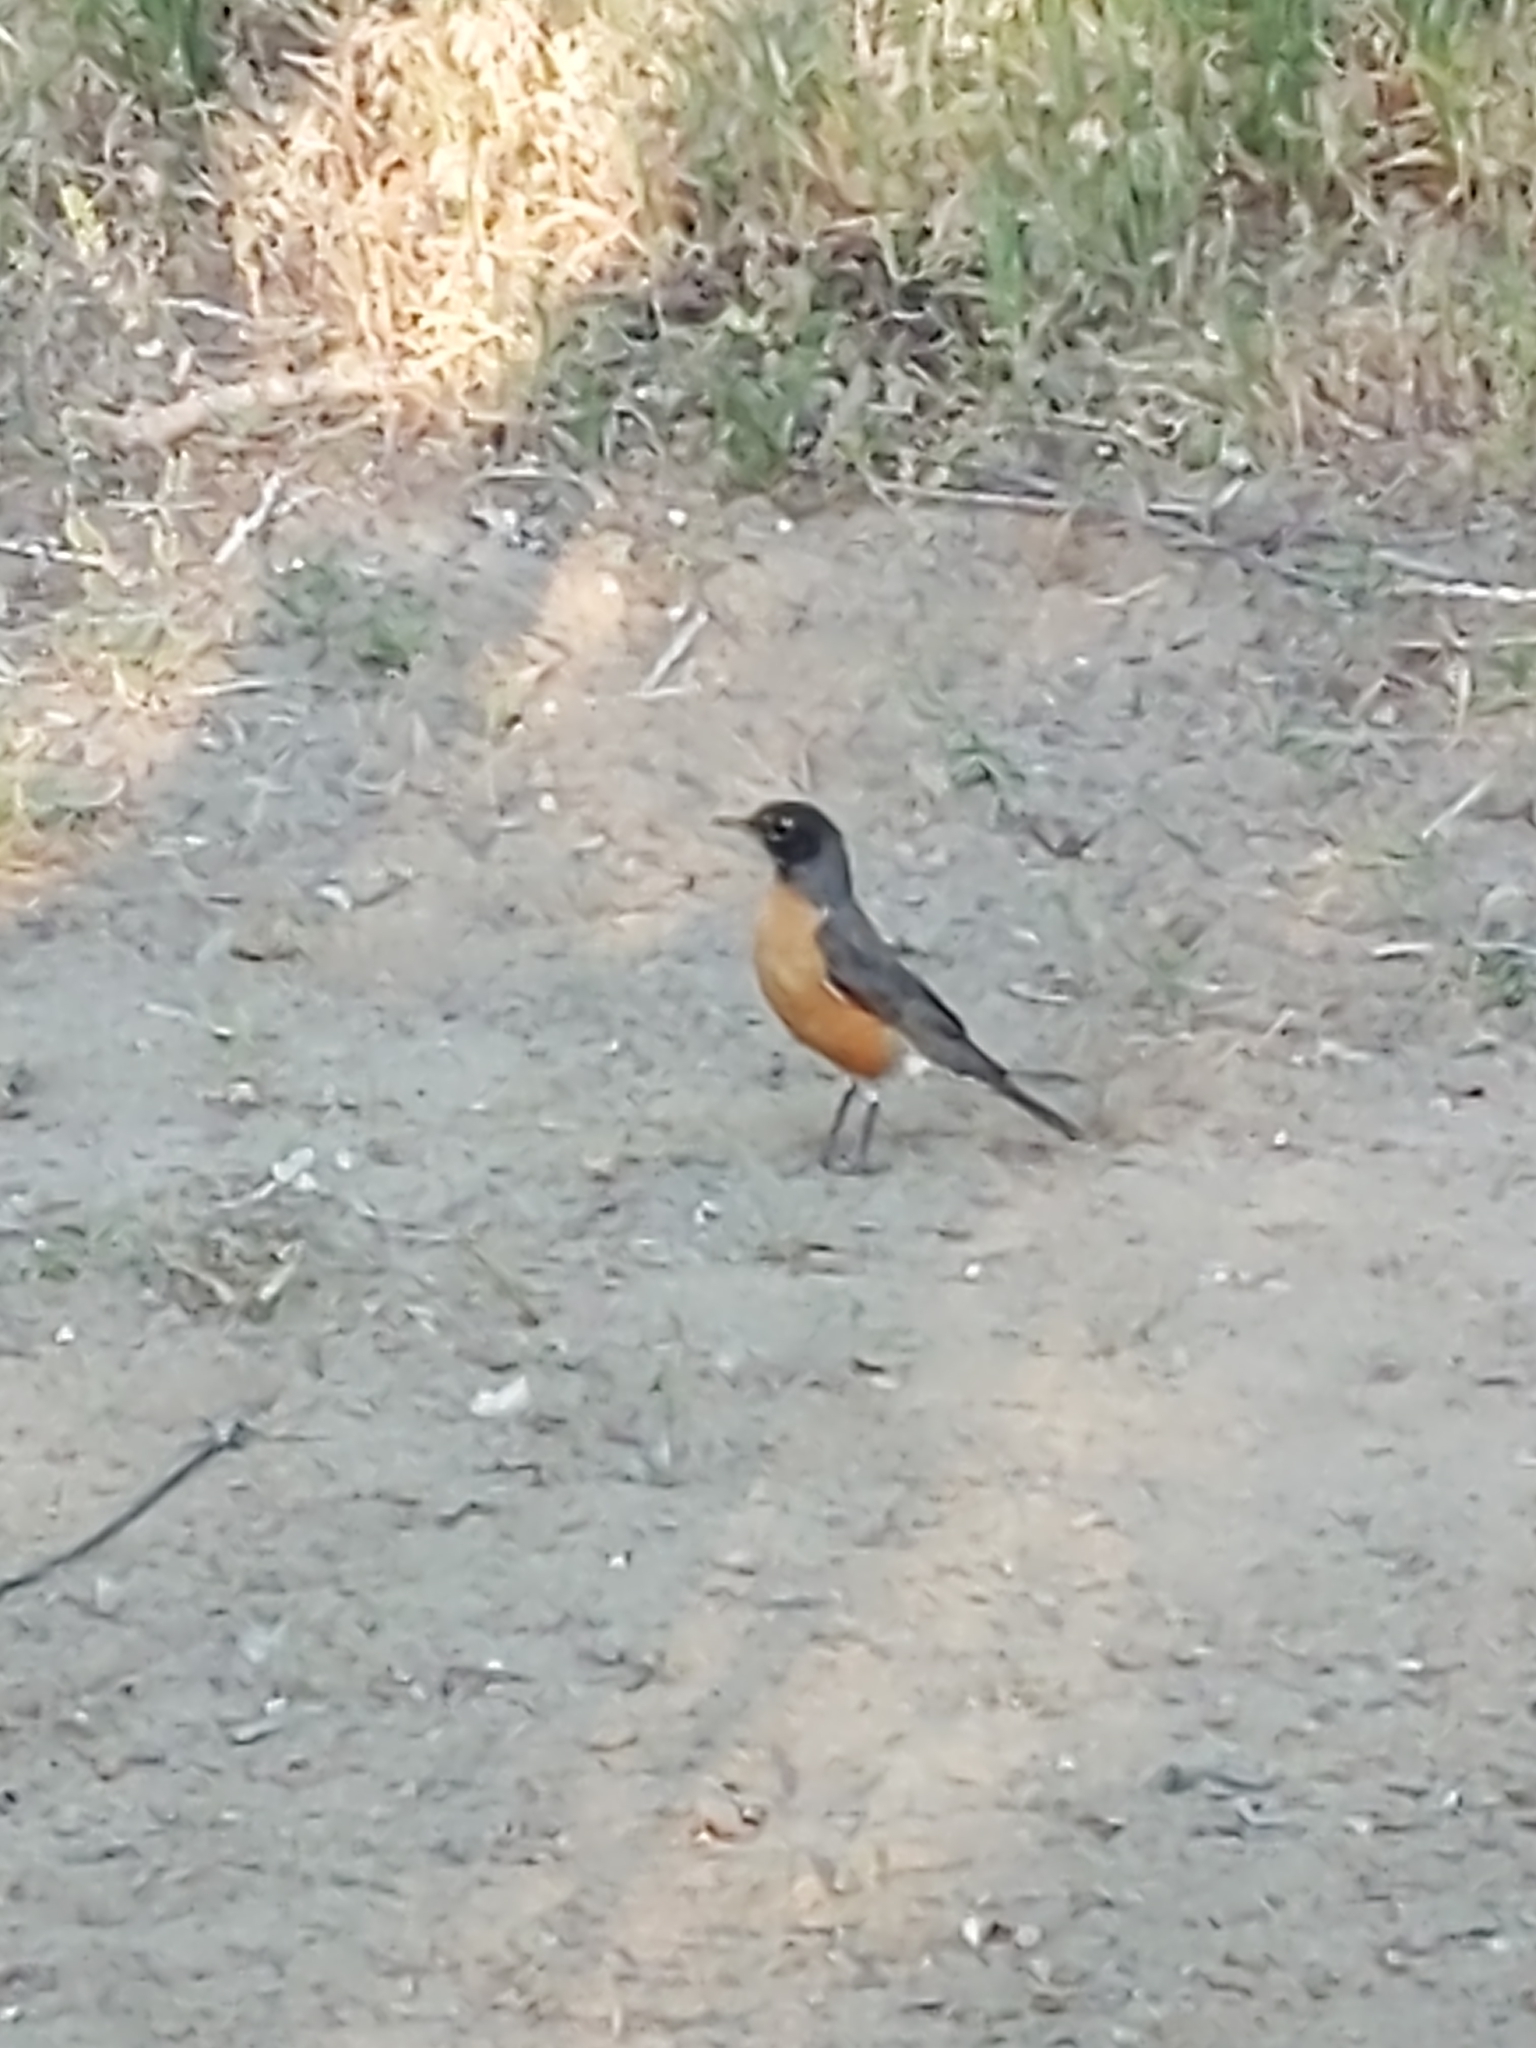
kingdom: Animalia
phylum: Chordata
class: Aves
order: Passeriformes
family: Turdidae
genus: Turdus
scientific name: Turdus migratorius
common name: American robin
